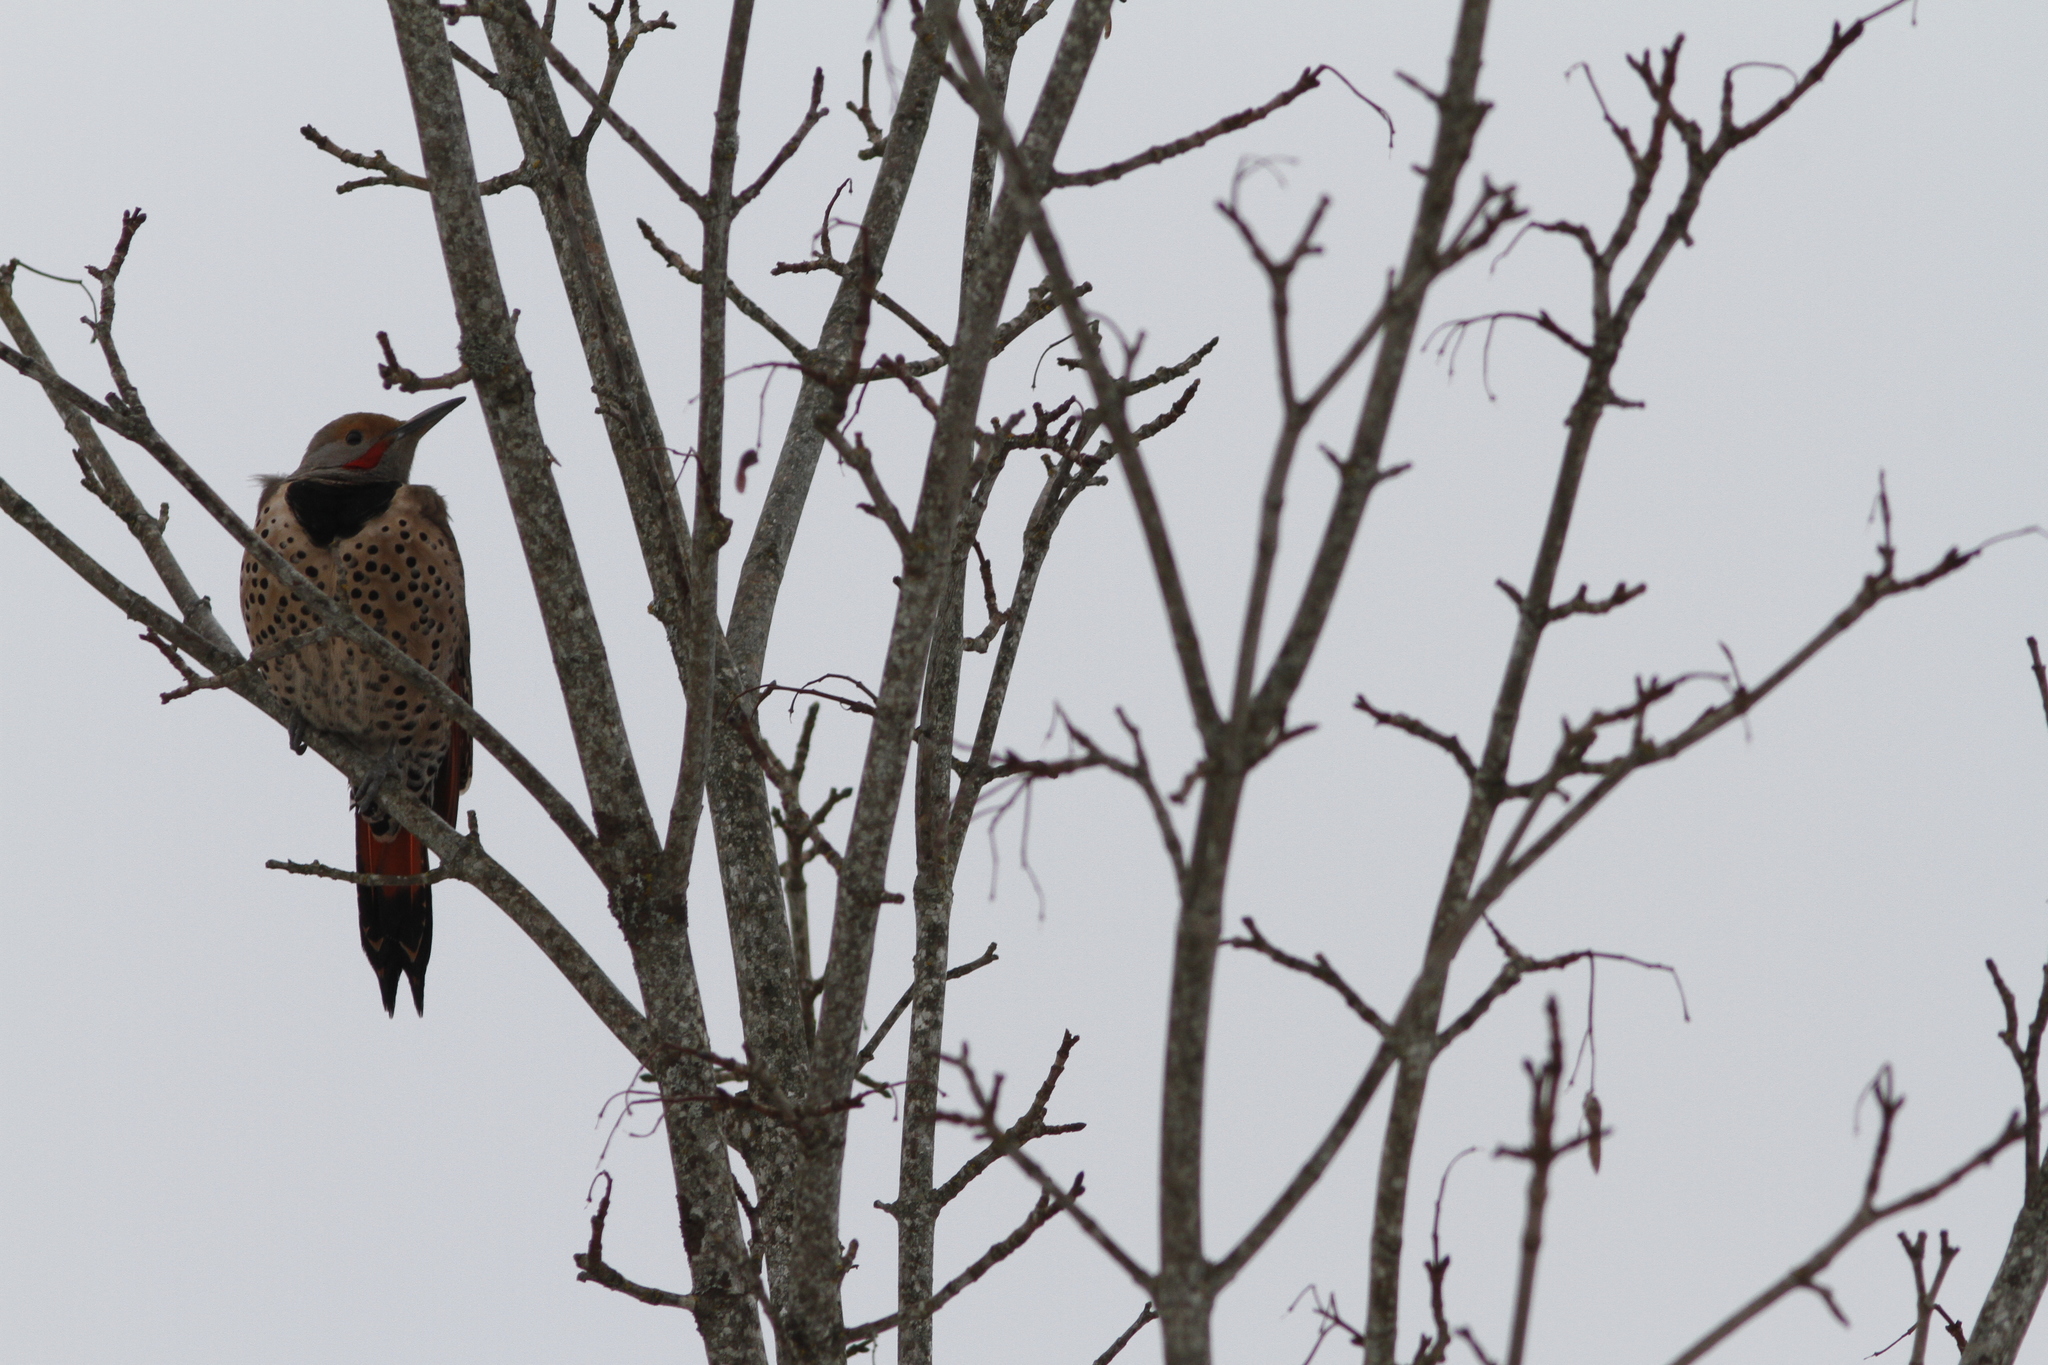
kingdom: Animalia
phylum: Chordata
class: Aves
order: Piciformes
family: Picidae
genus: Colaptes
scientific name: Colaptes auratus
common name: Northern flicker
